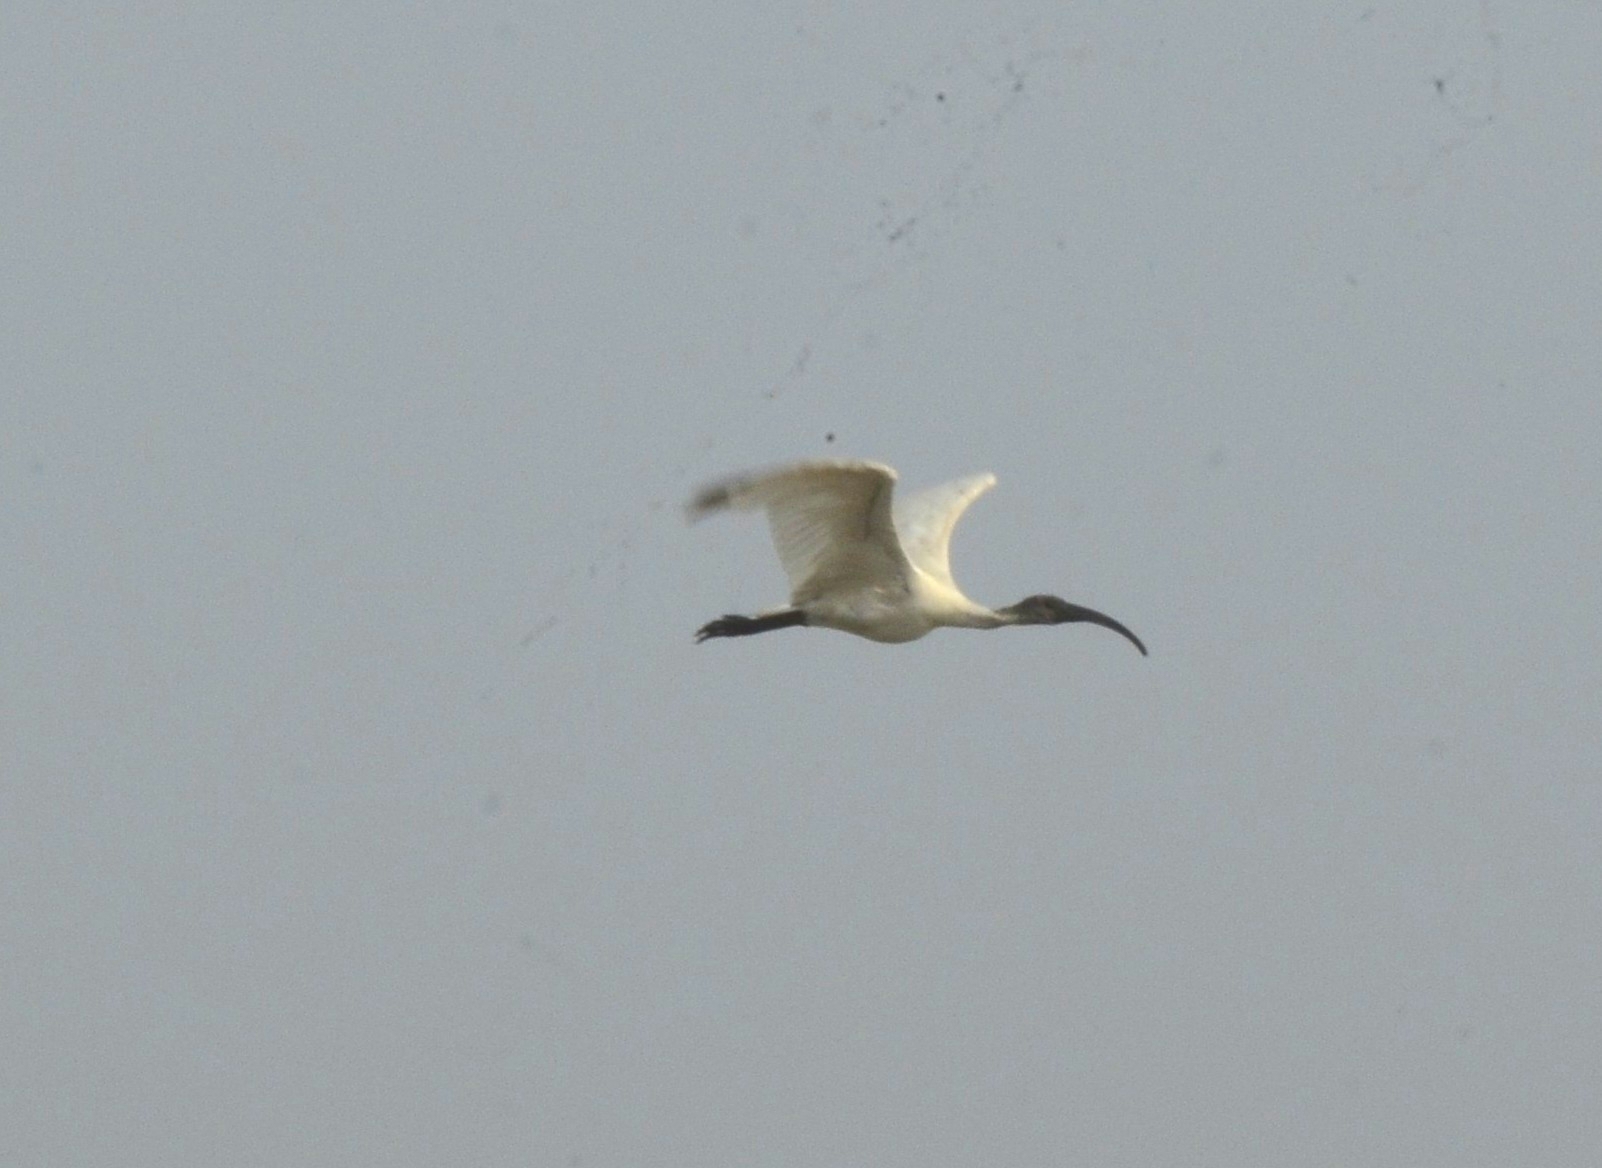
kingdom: Animalia
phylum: Chordata
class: Aves
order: Pelecaniformes
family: Threskiornithidae
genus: Threskiornis
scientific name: Threskiornis melanocephalus
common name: Black-headed ibis
